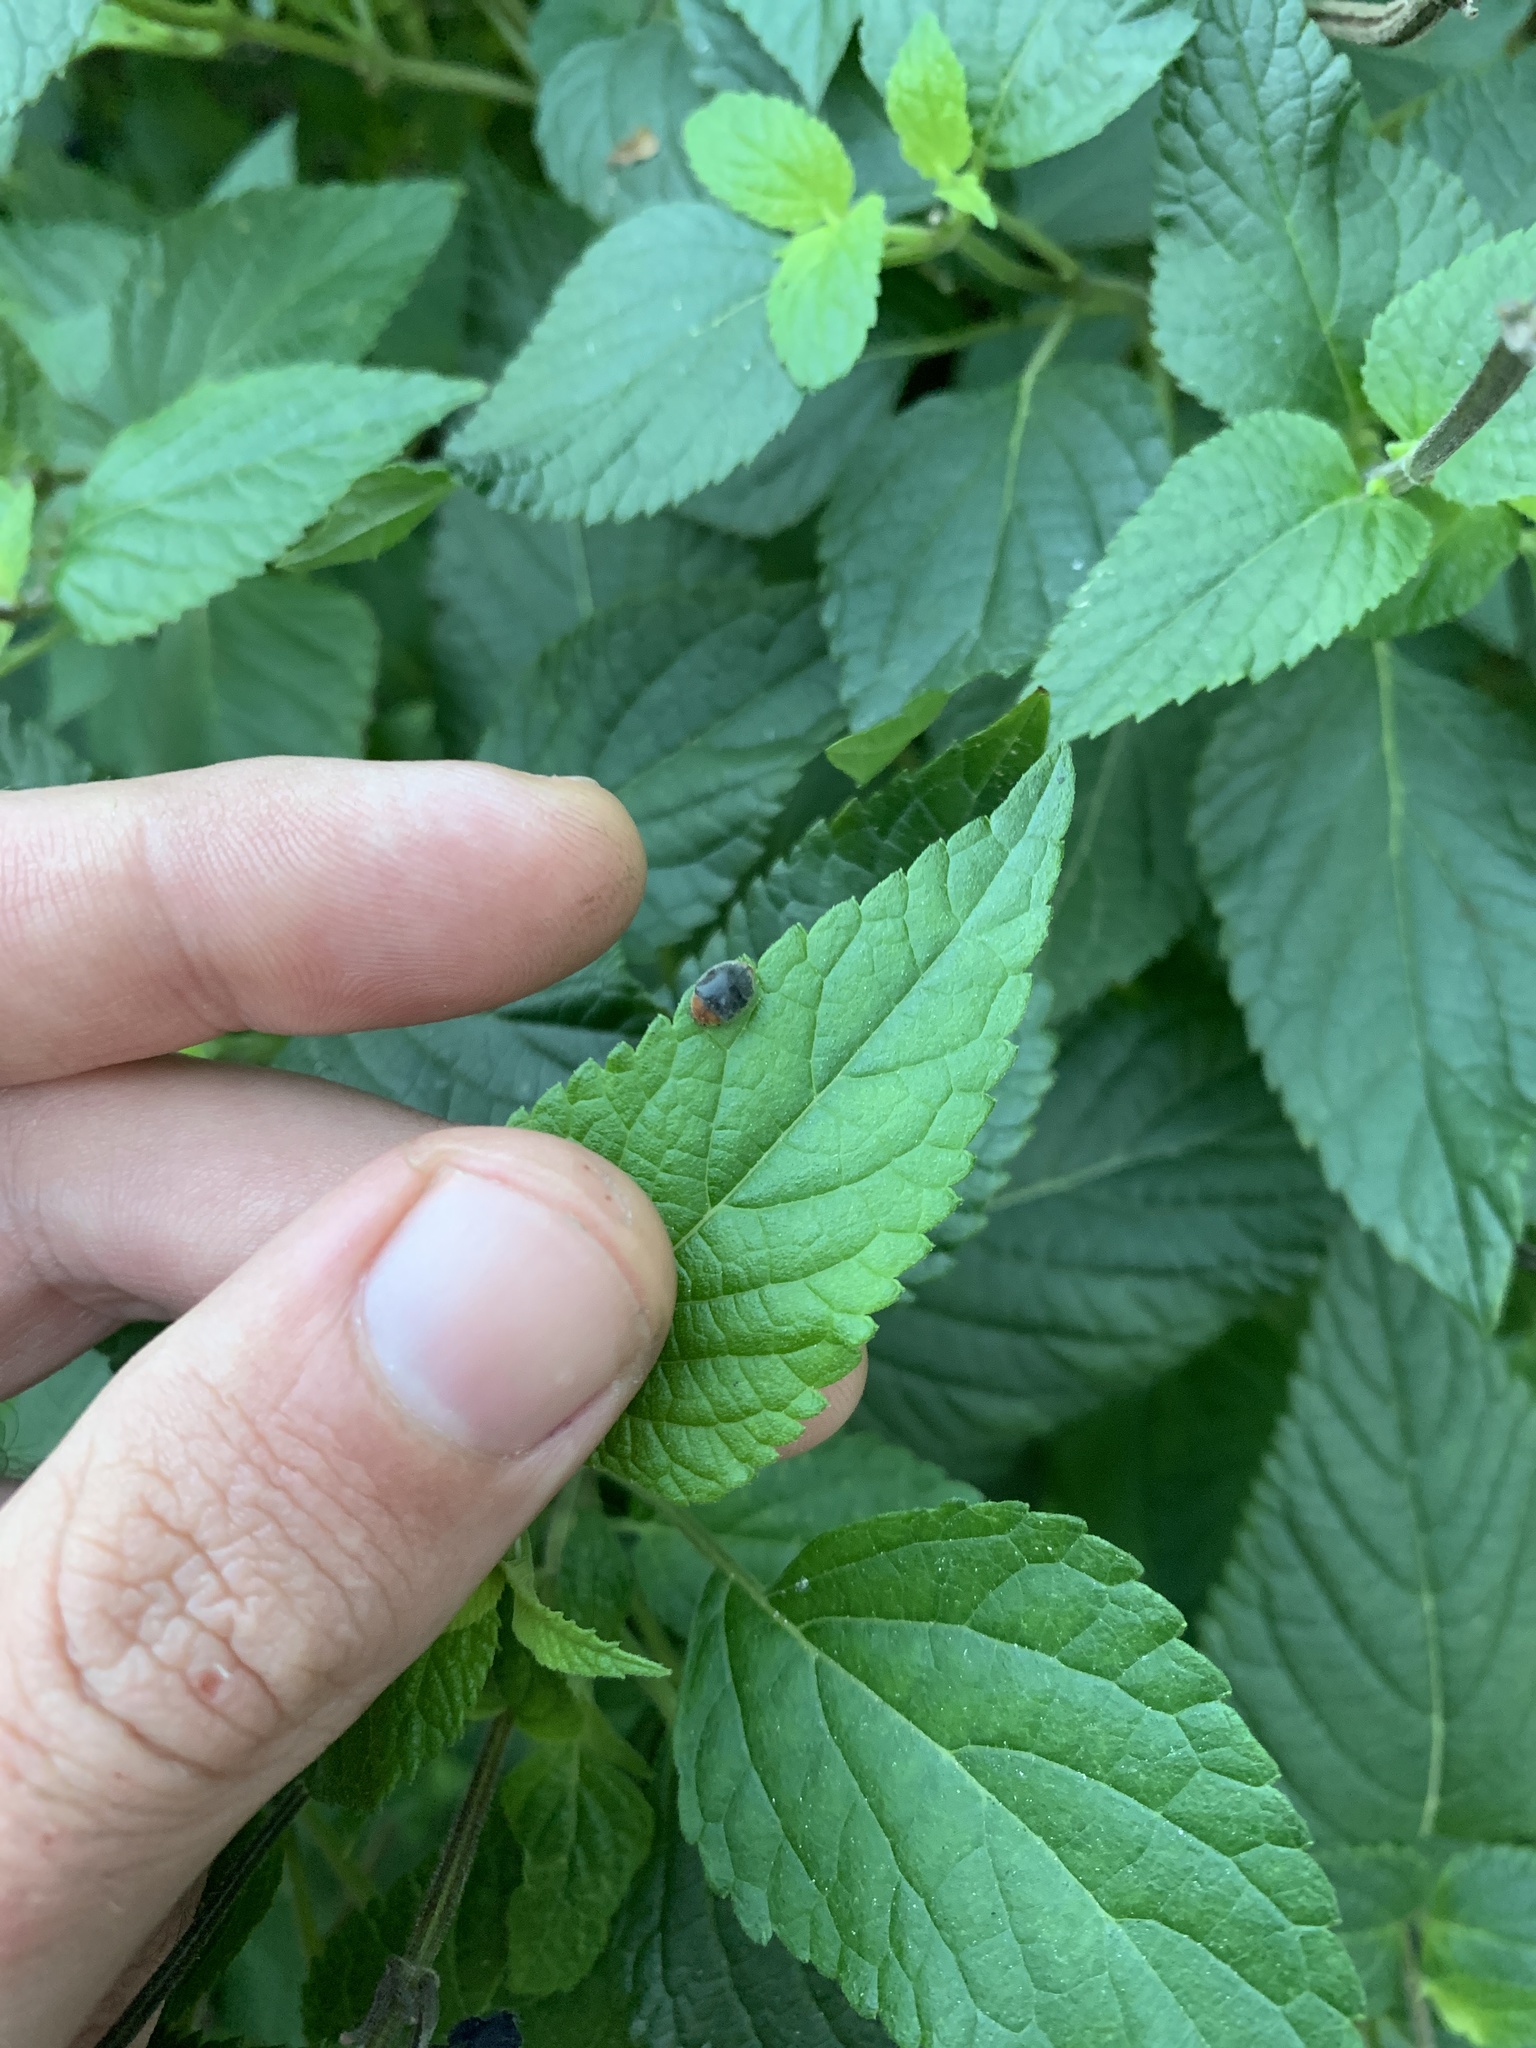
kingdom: Animalia
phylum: Arthropoda
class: Insecta
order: Coleoptera
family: Coccinellidae
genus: Cryptolaemus
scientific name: Cryptolaemus montrouzieri
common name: Mealybug destroyer
